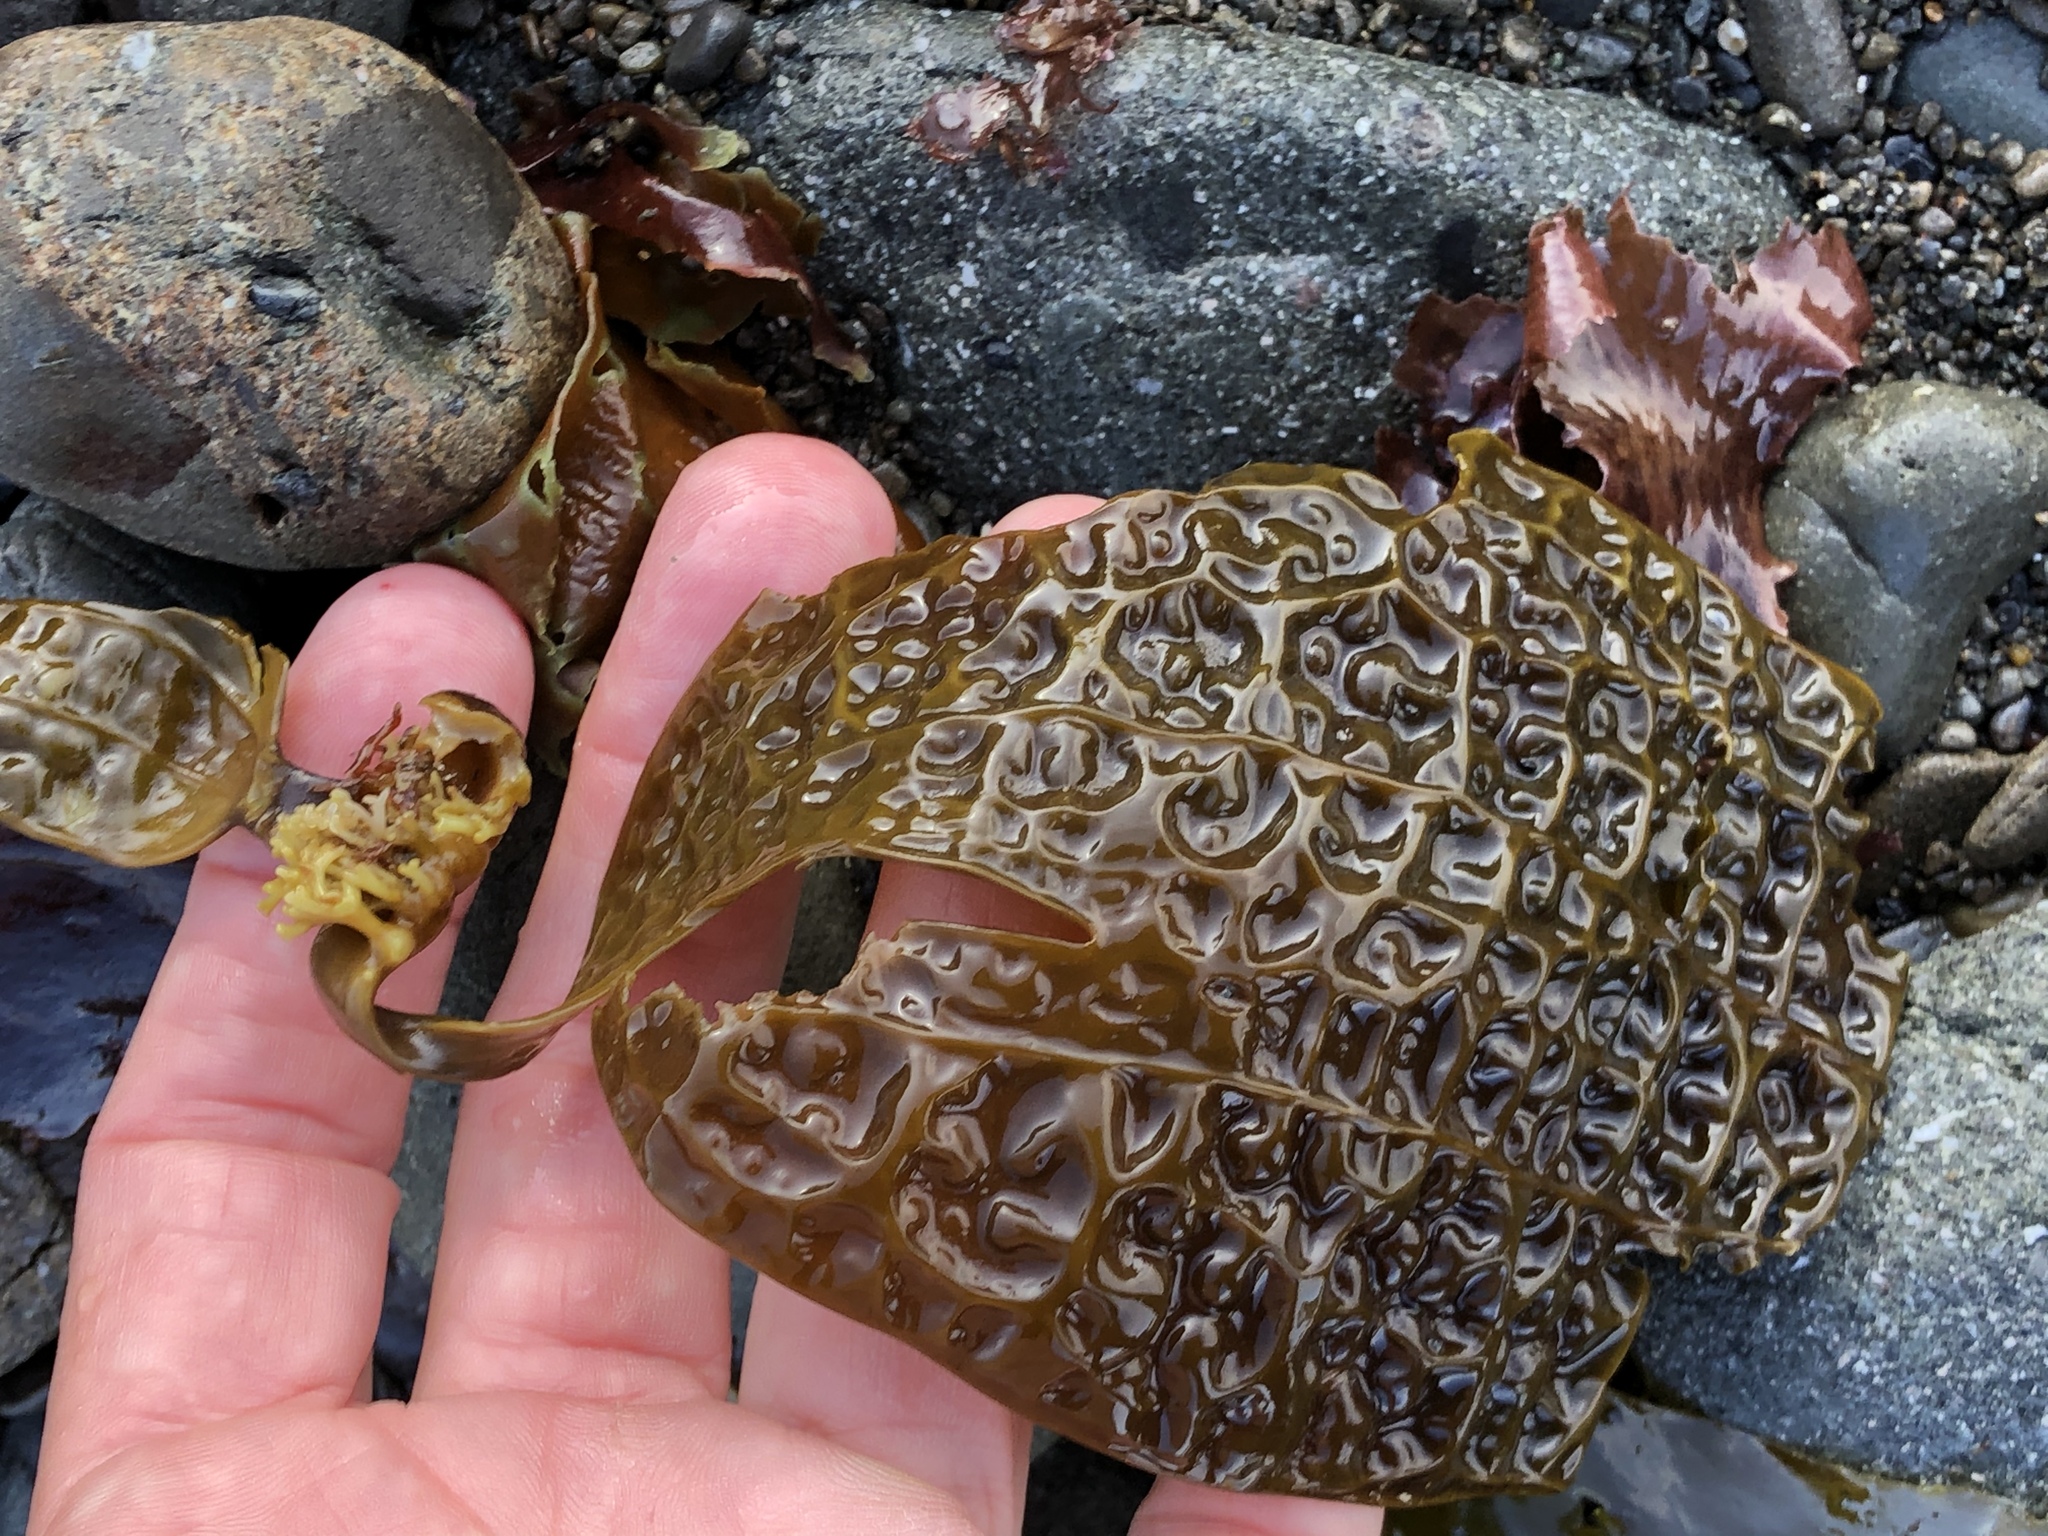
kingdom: Chromista
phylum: Ochrophyta
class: Phaeophyceae
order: Laminariales
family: Costariaceae
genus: Dictyoneurum
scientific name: Dictyoneurum californicum
